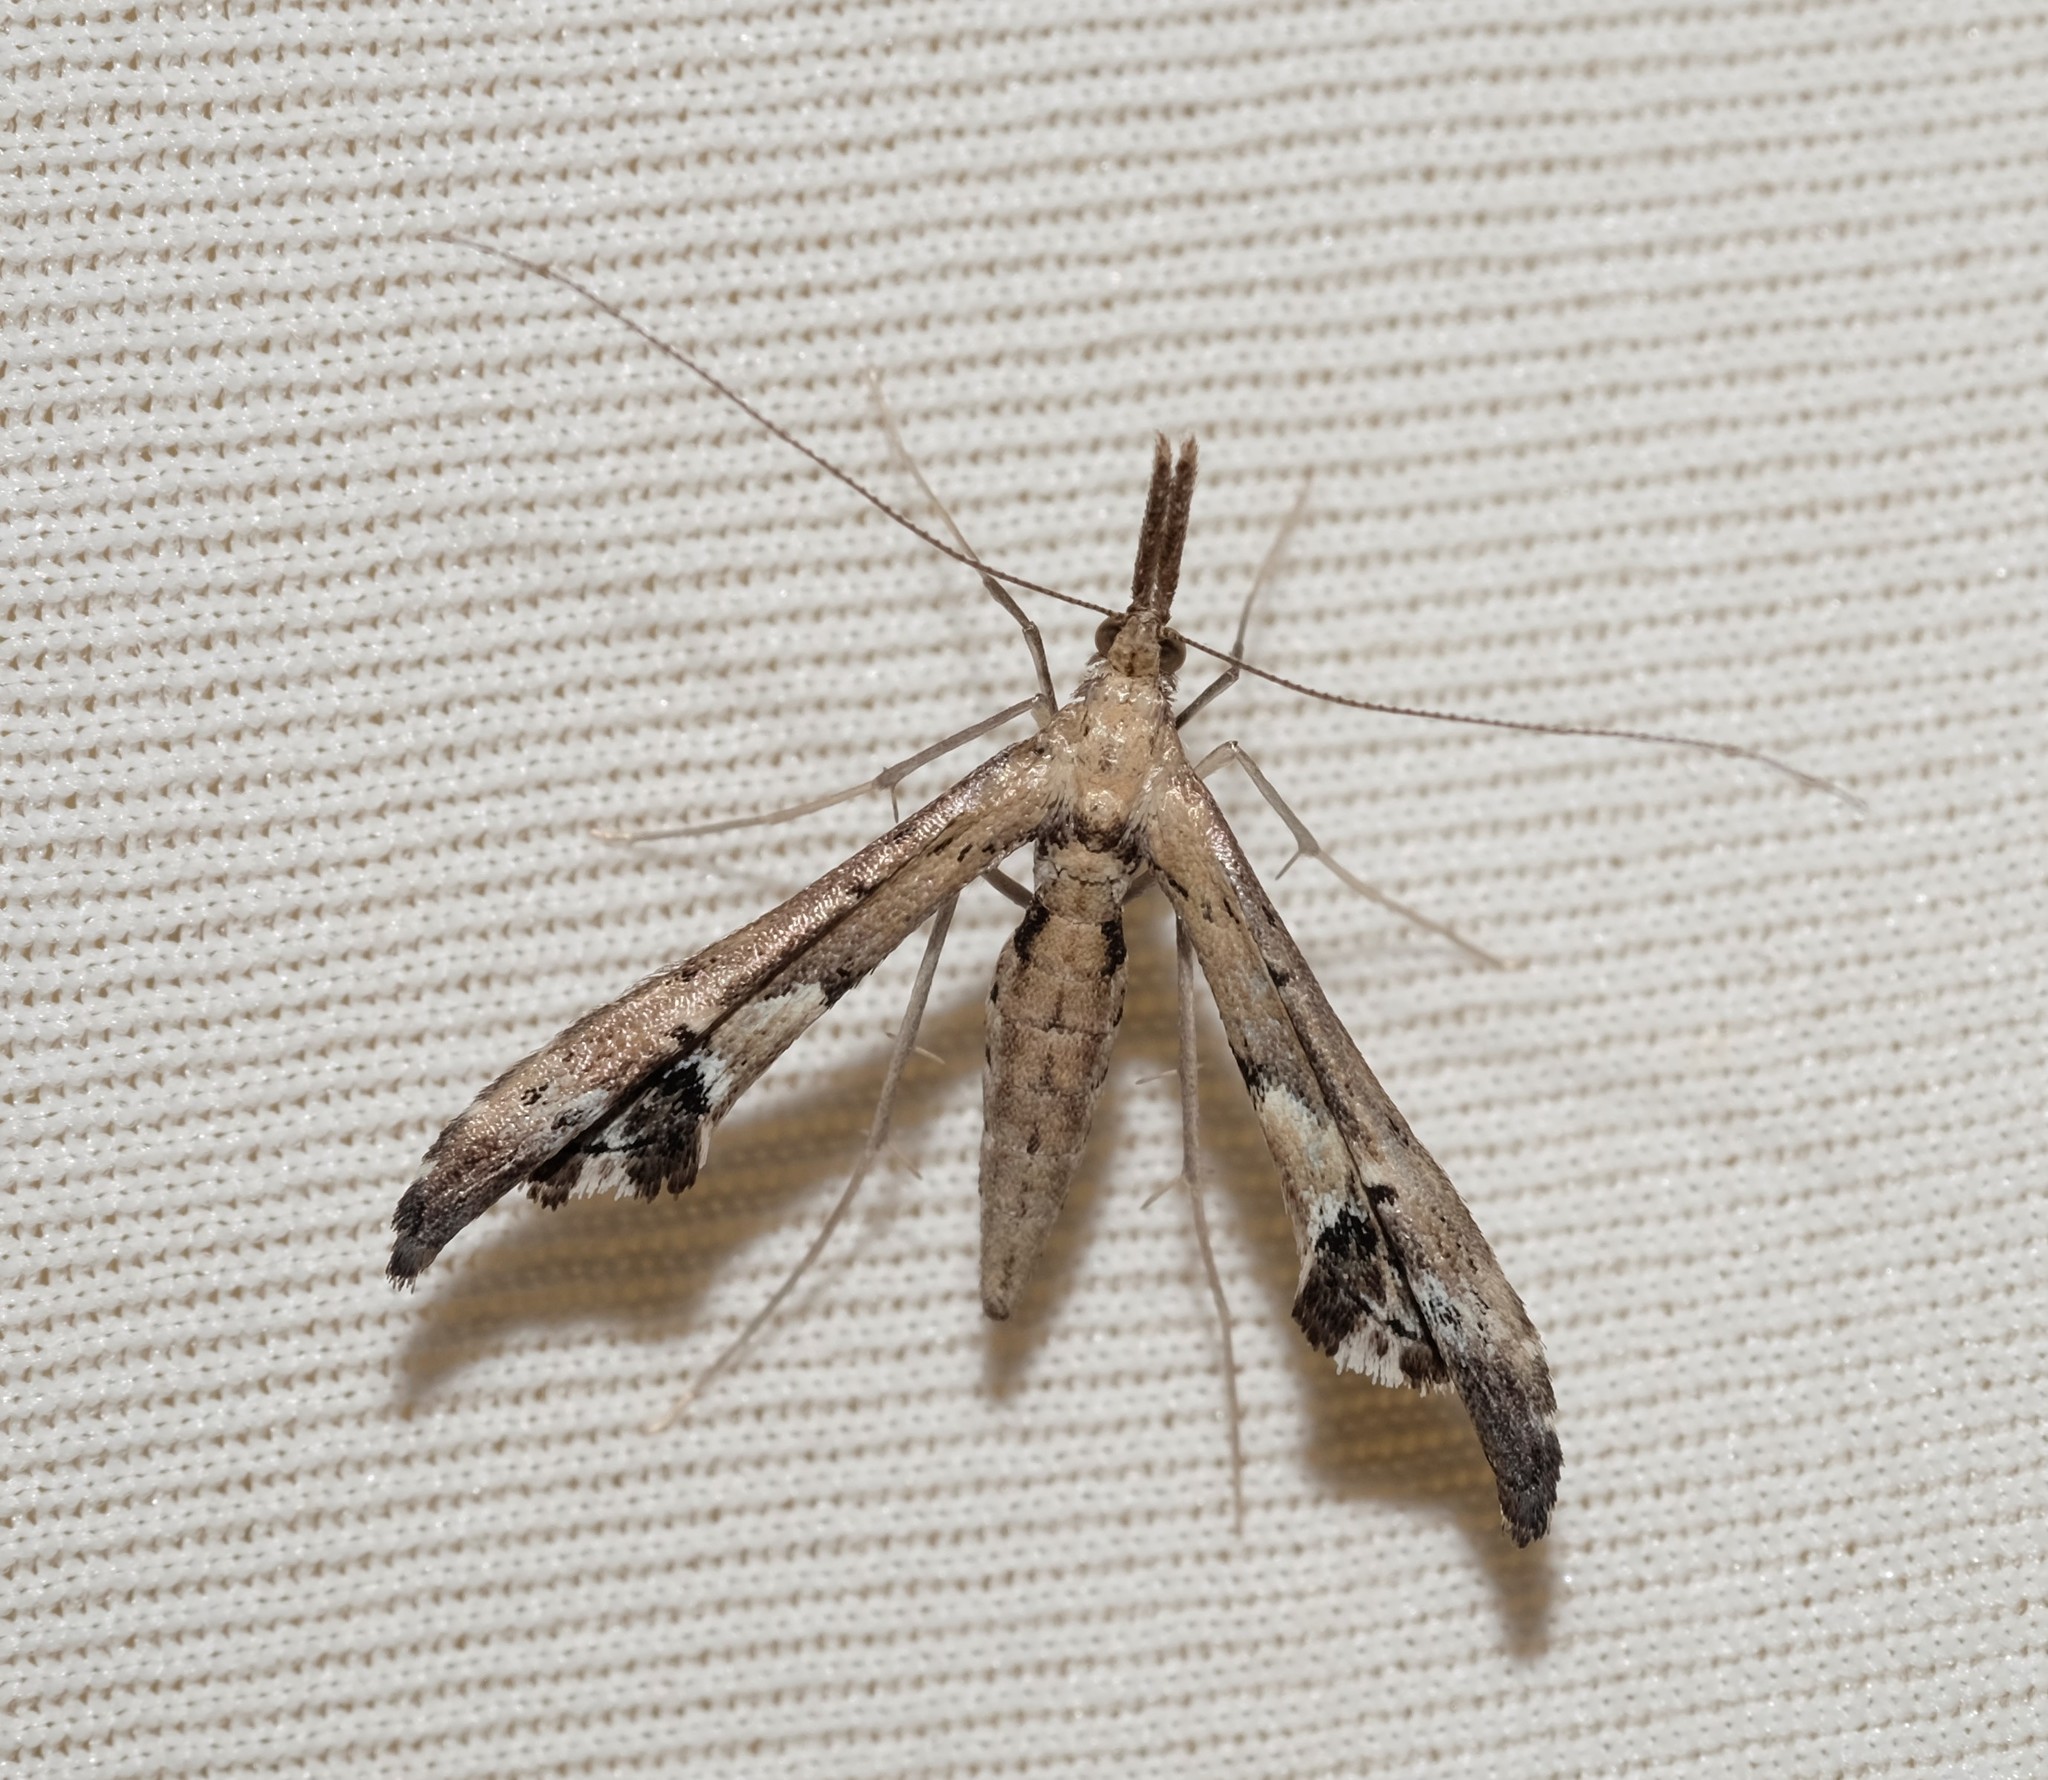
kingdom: Animalia
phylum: Arthropoda
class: Insecta
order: Lepidoptera
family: Alucitidae
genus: Tineodes
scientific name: Tineodes adactylalis
